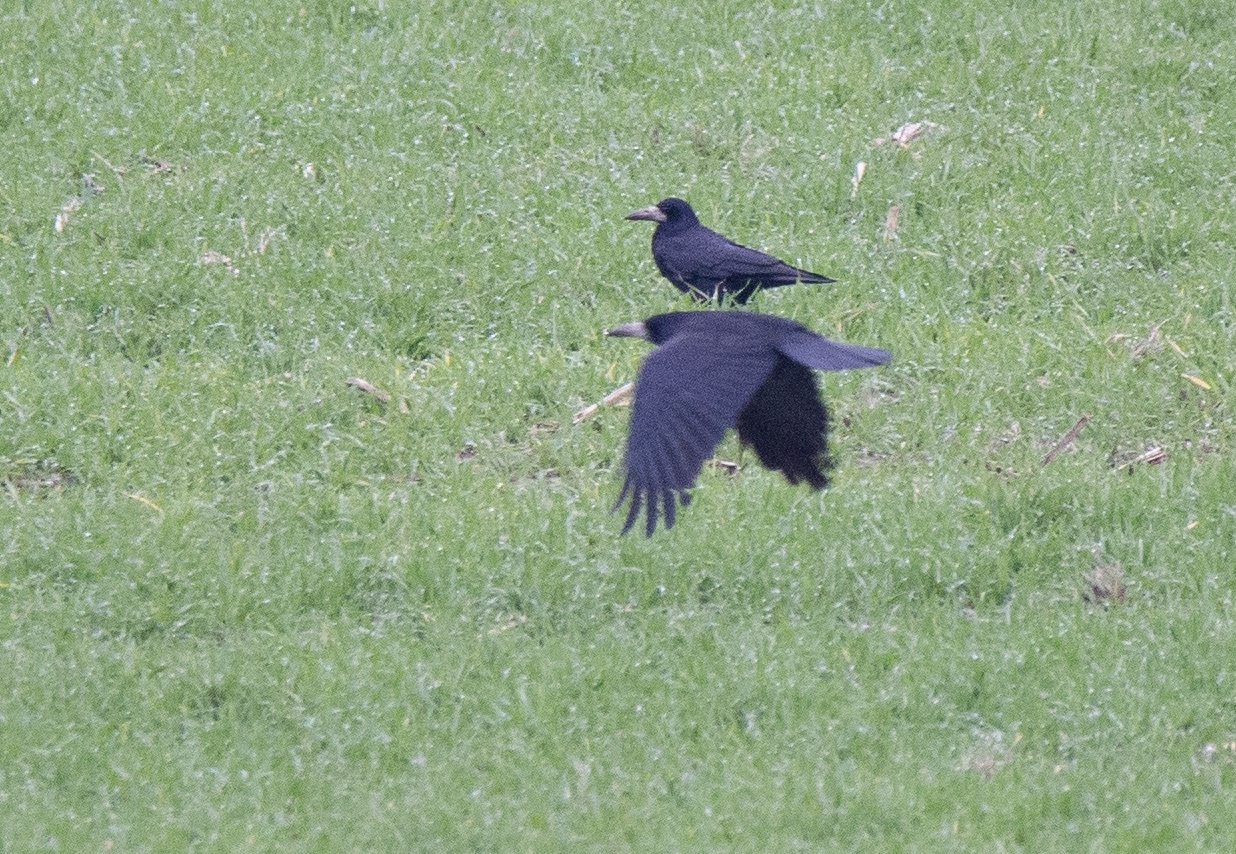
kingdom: Animalia
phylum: Chordata
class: Aves
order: Passeriformes
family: Corvidae
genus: Corvus
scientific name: Corvus frugilegus
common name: Rook
